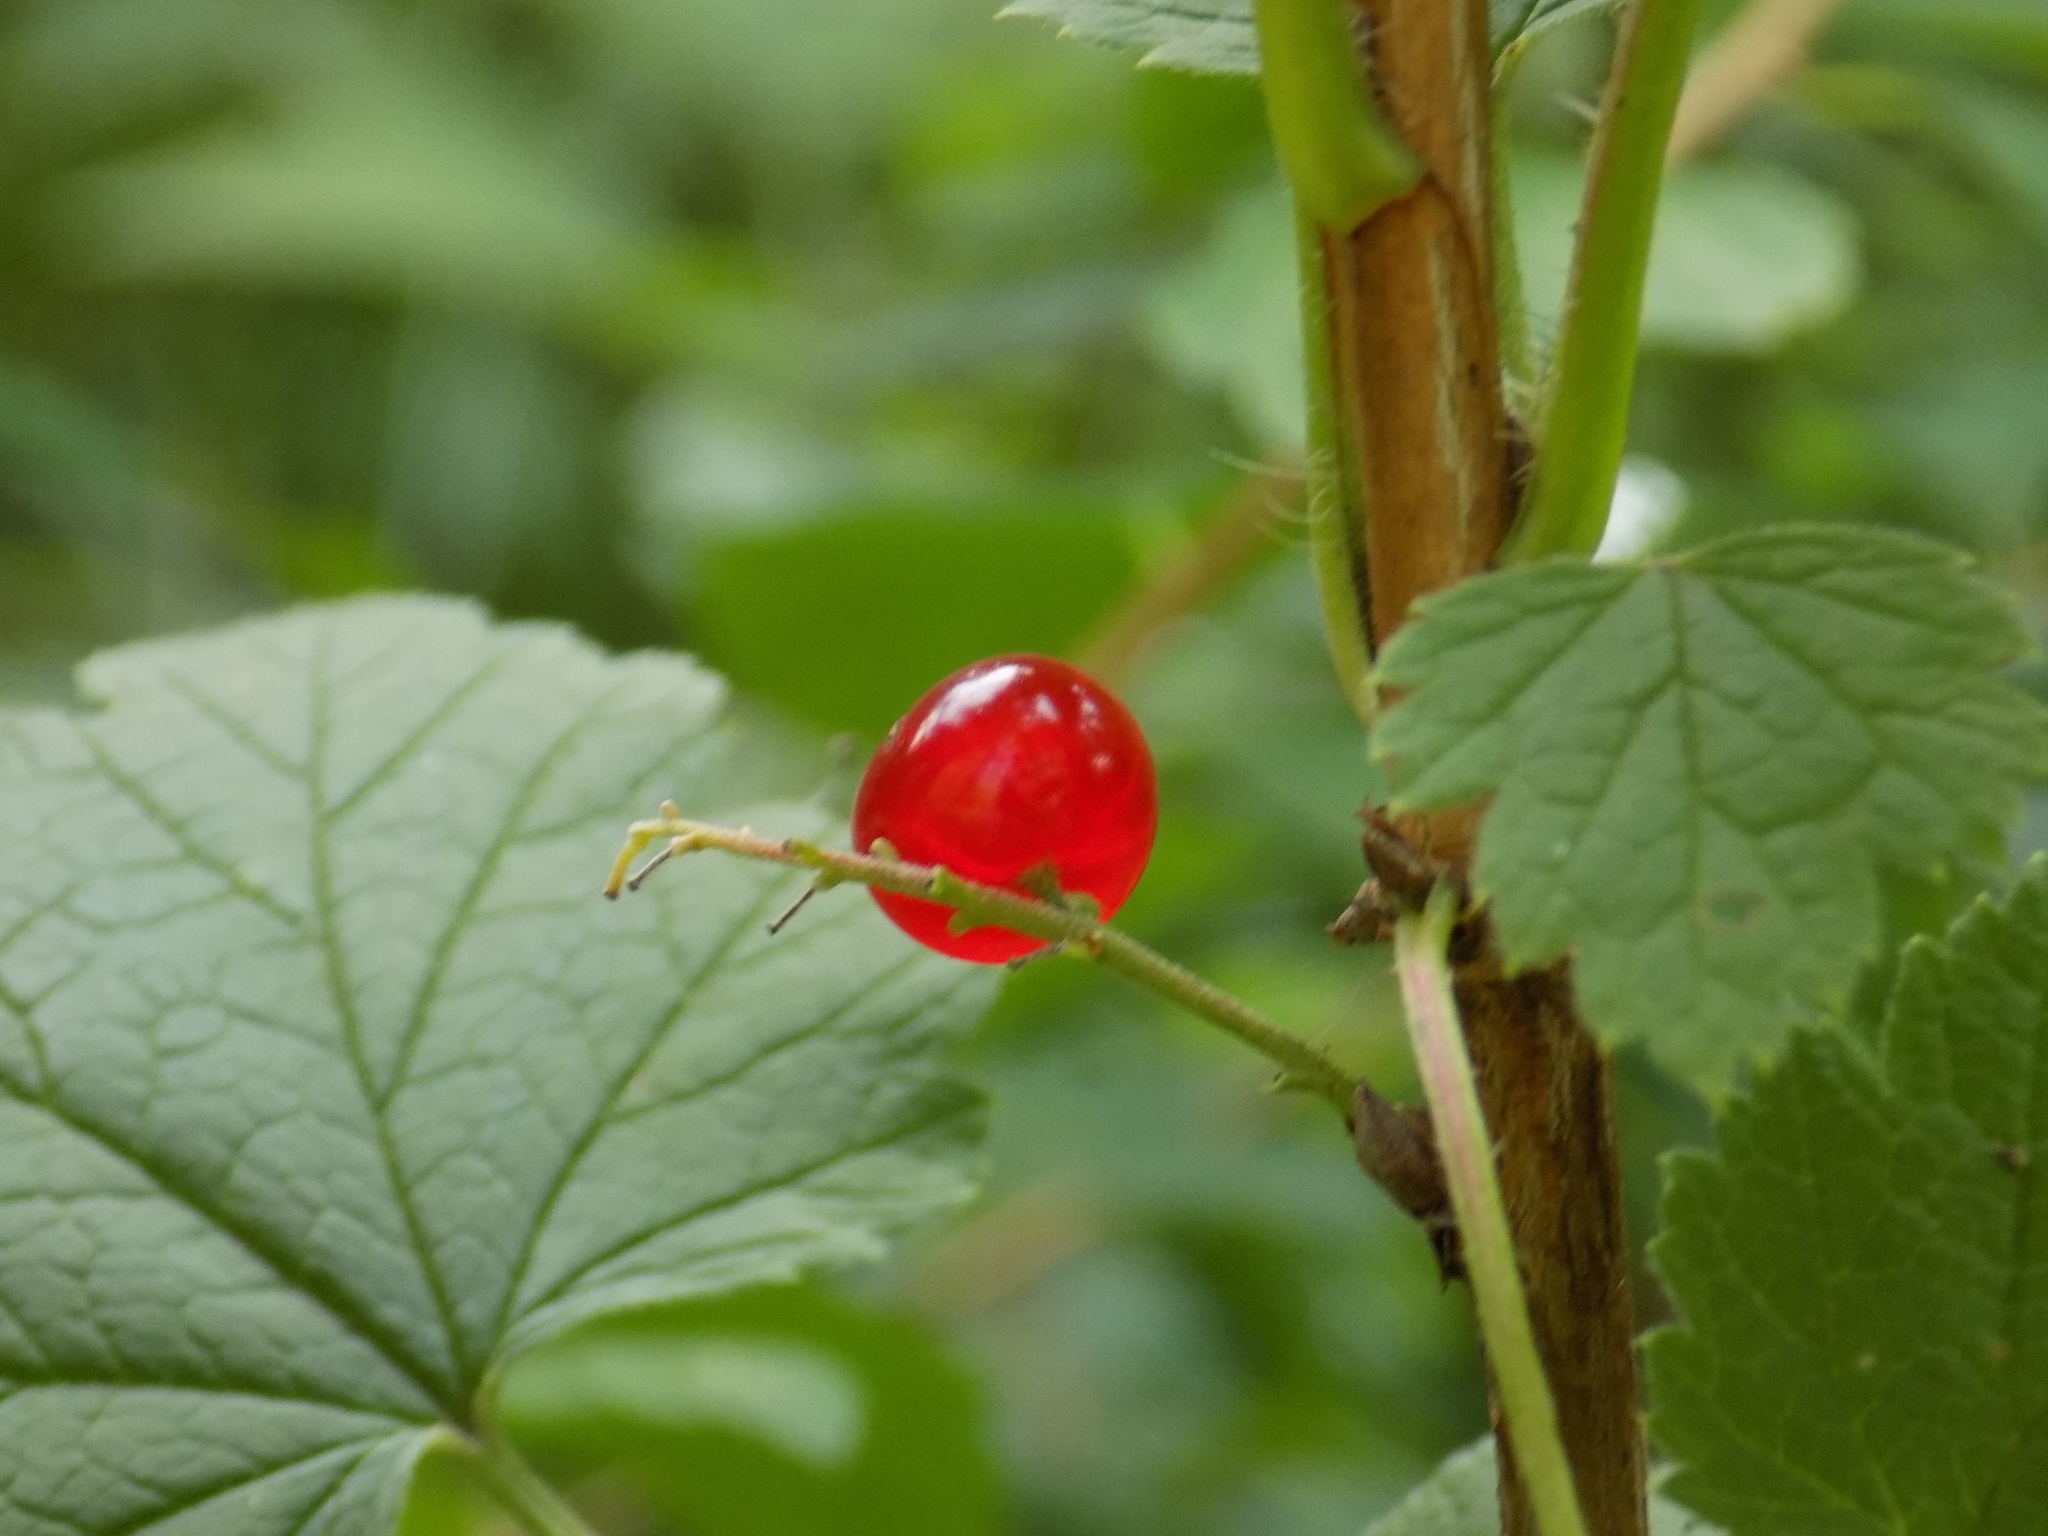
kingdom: Plantae
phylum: Tracheophyta
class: Magnoliopsida
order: Saxifragales
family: Grossulariaceae
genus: Ribes
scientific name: Ribes spicatum
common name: Downy currant
